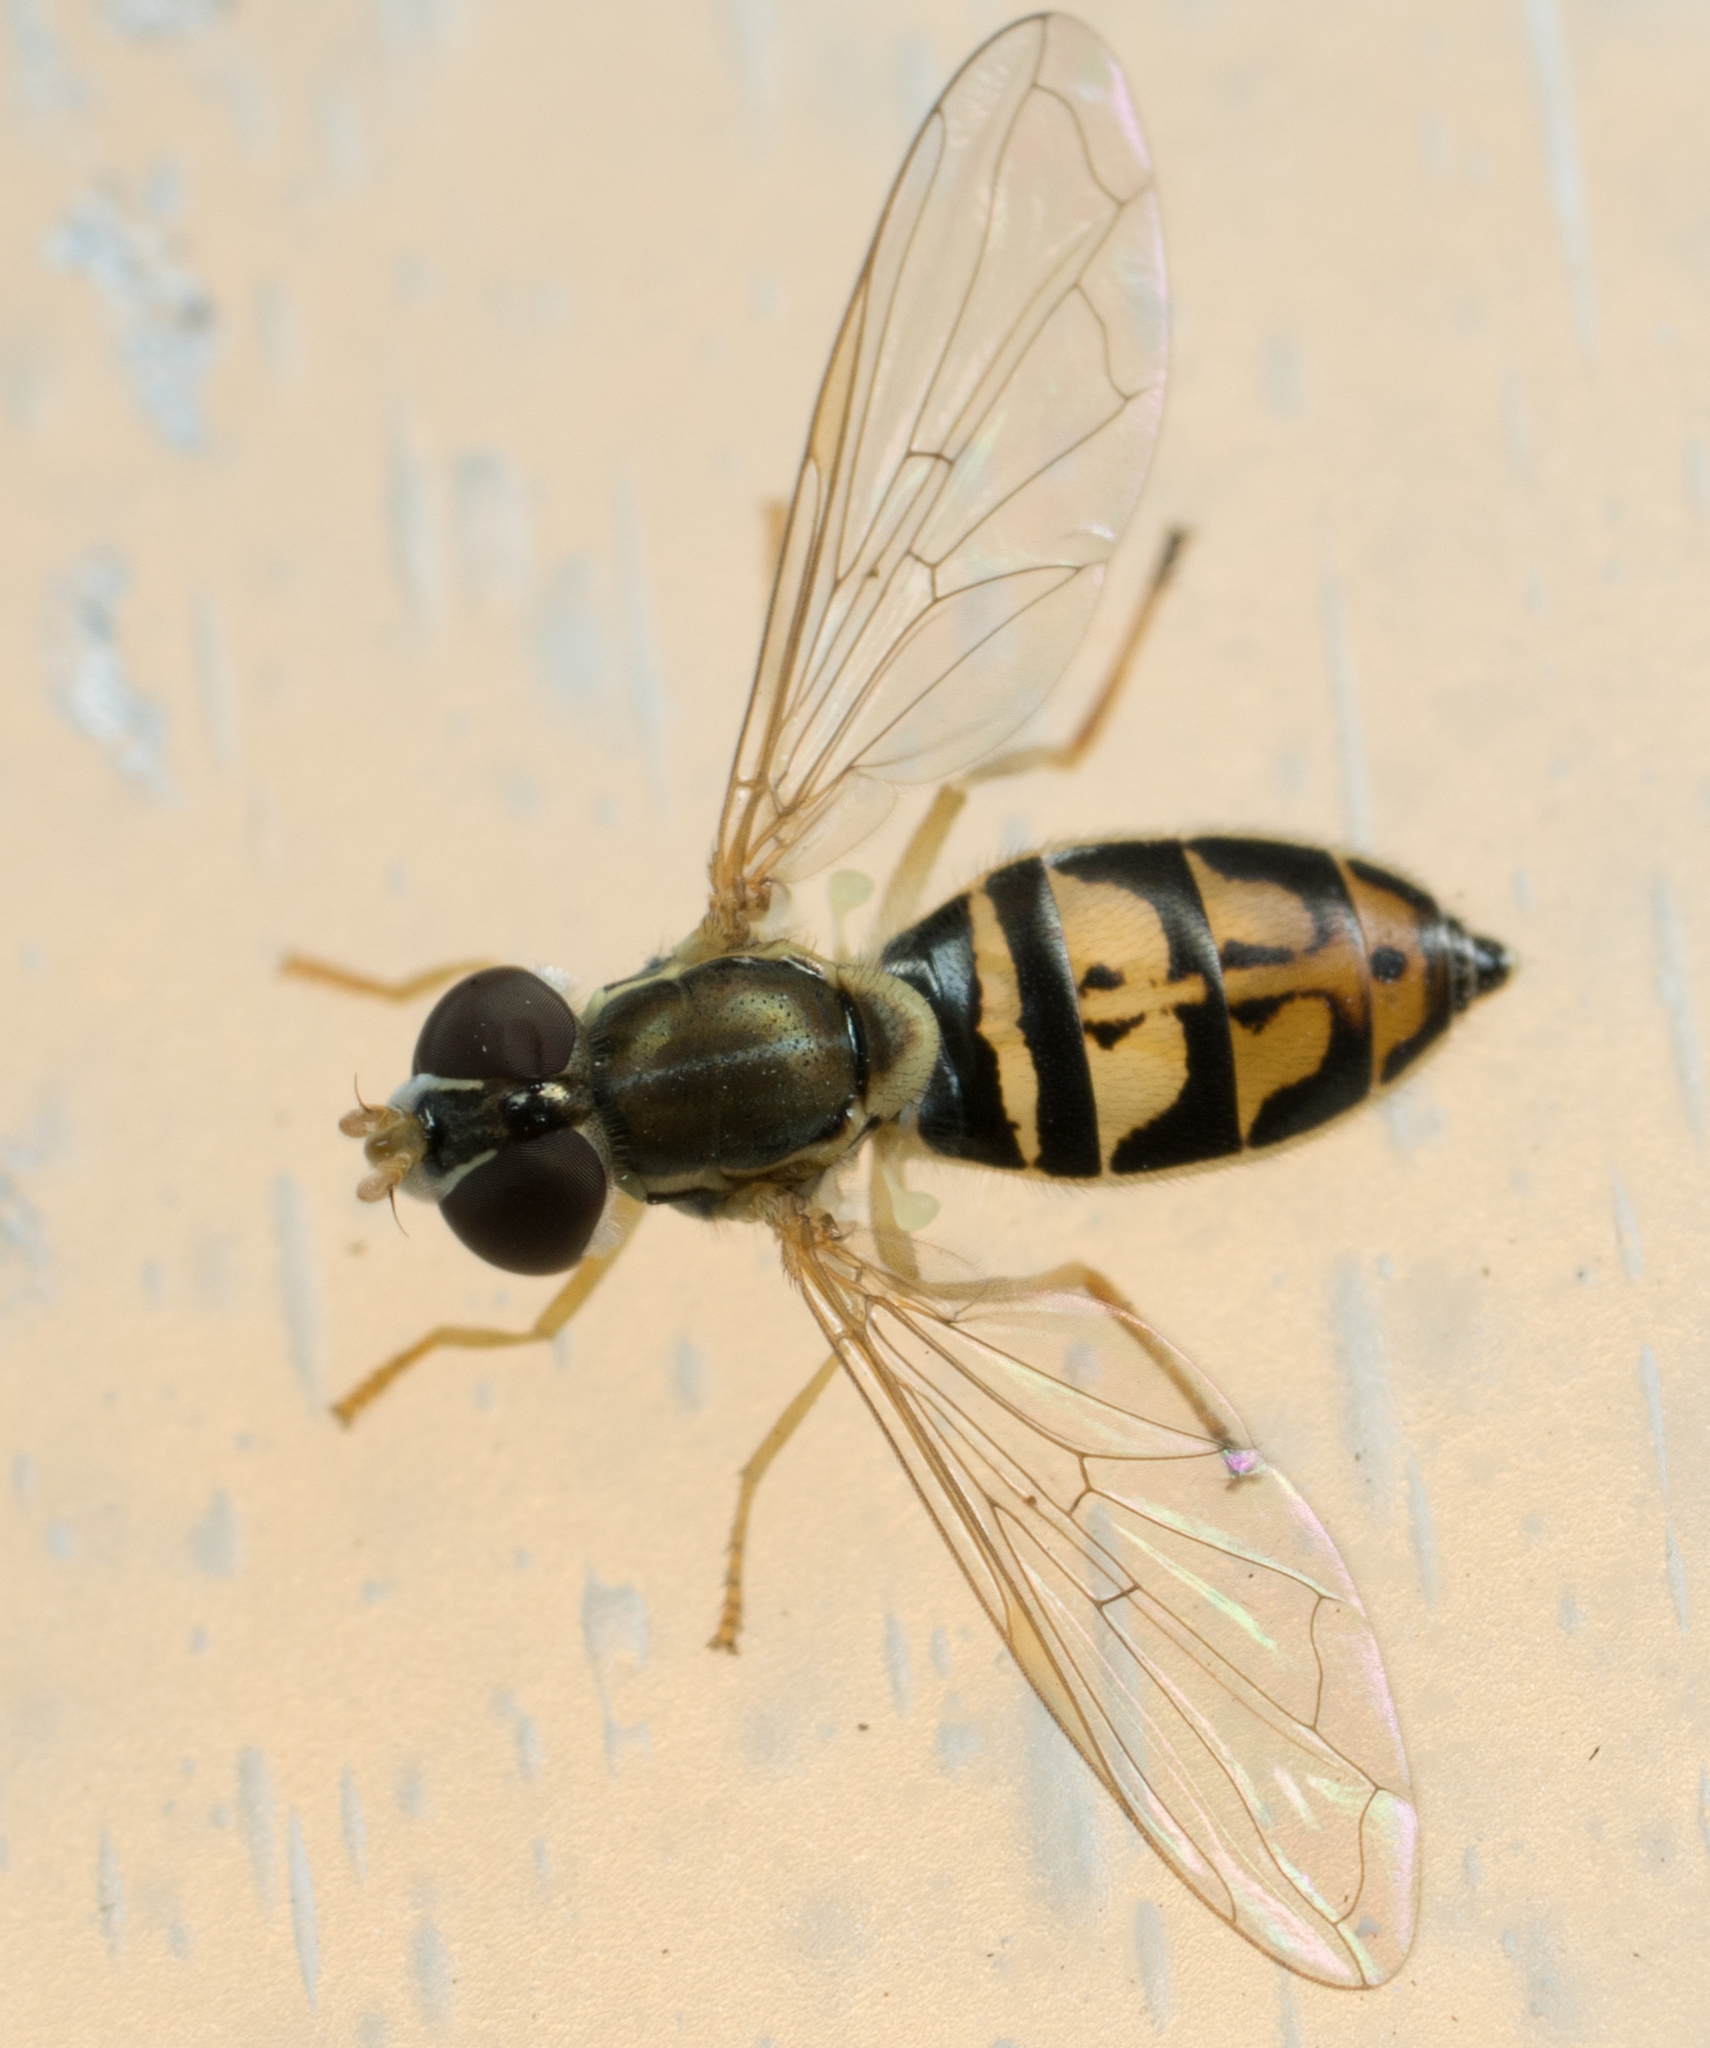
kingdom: Animalia
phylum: Arthropoda
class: Insecta
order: Diptera
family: Syrphidae
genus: Toxomerus
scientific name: Toxomerus marginatus
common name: Syrphid fly
